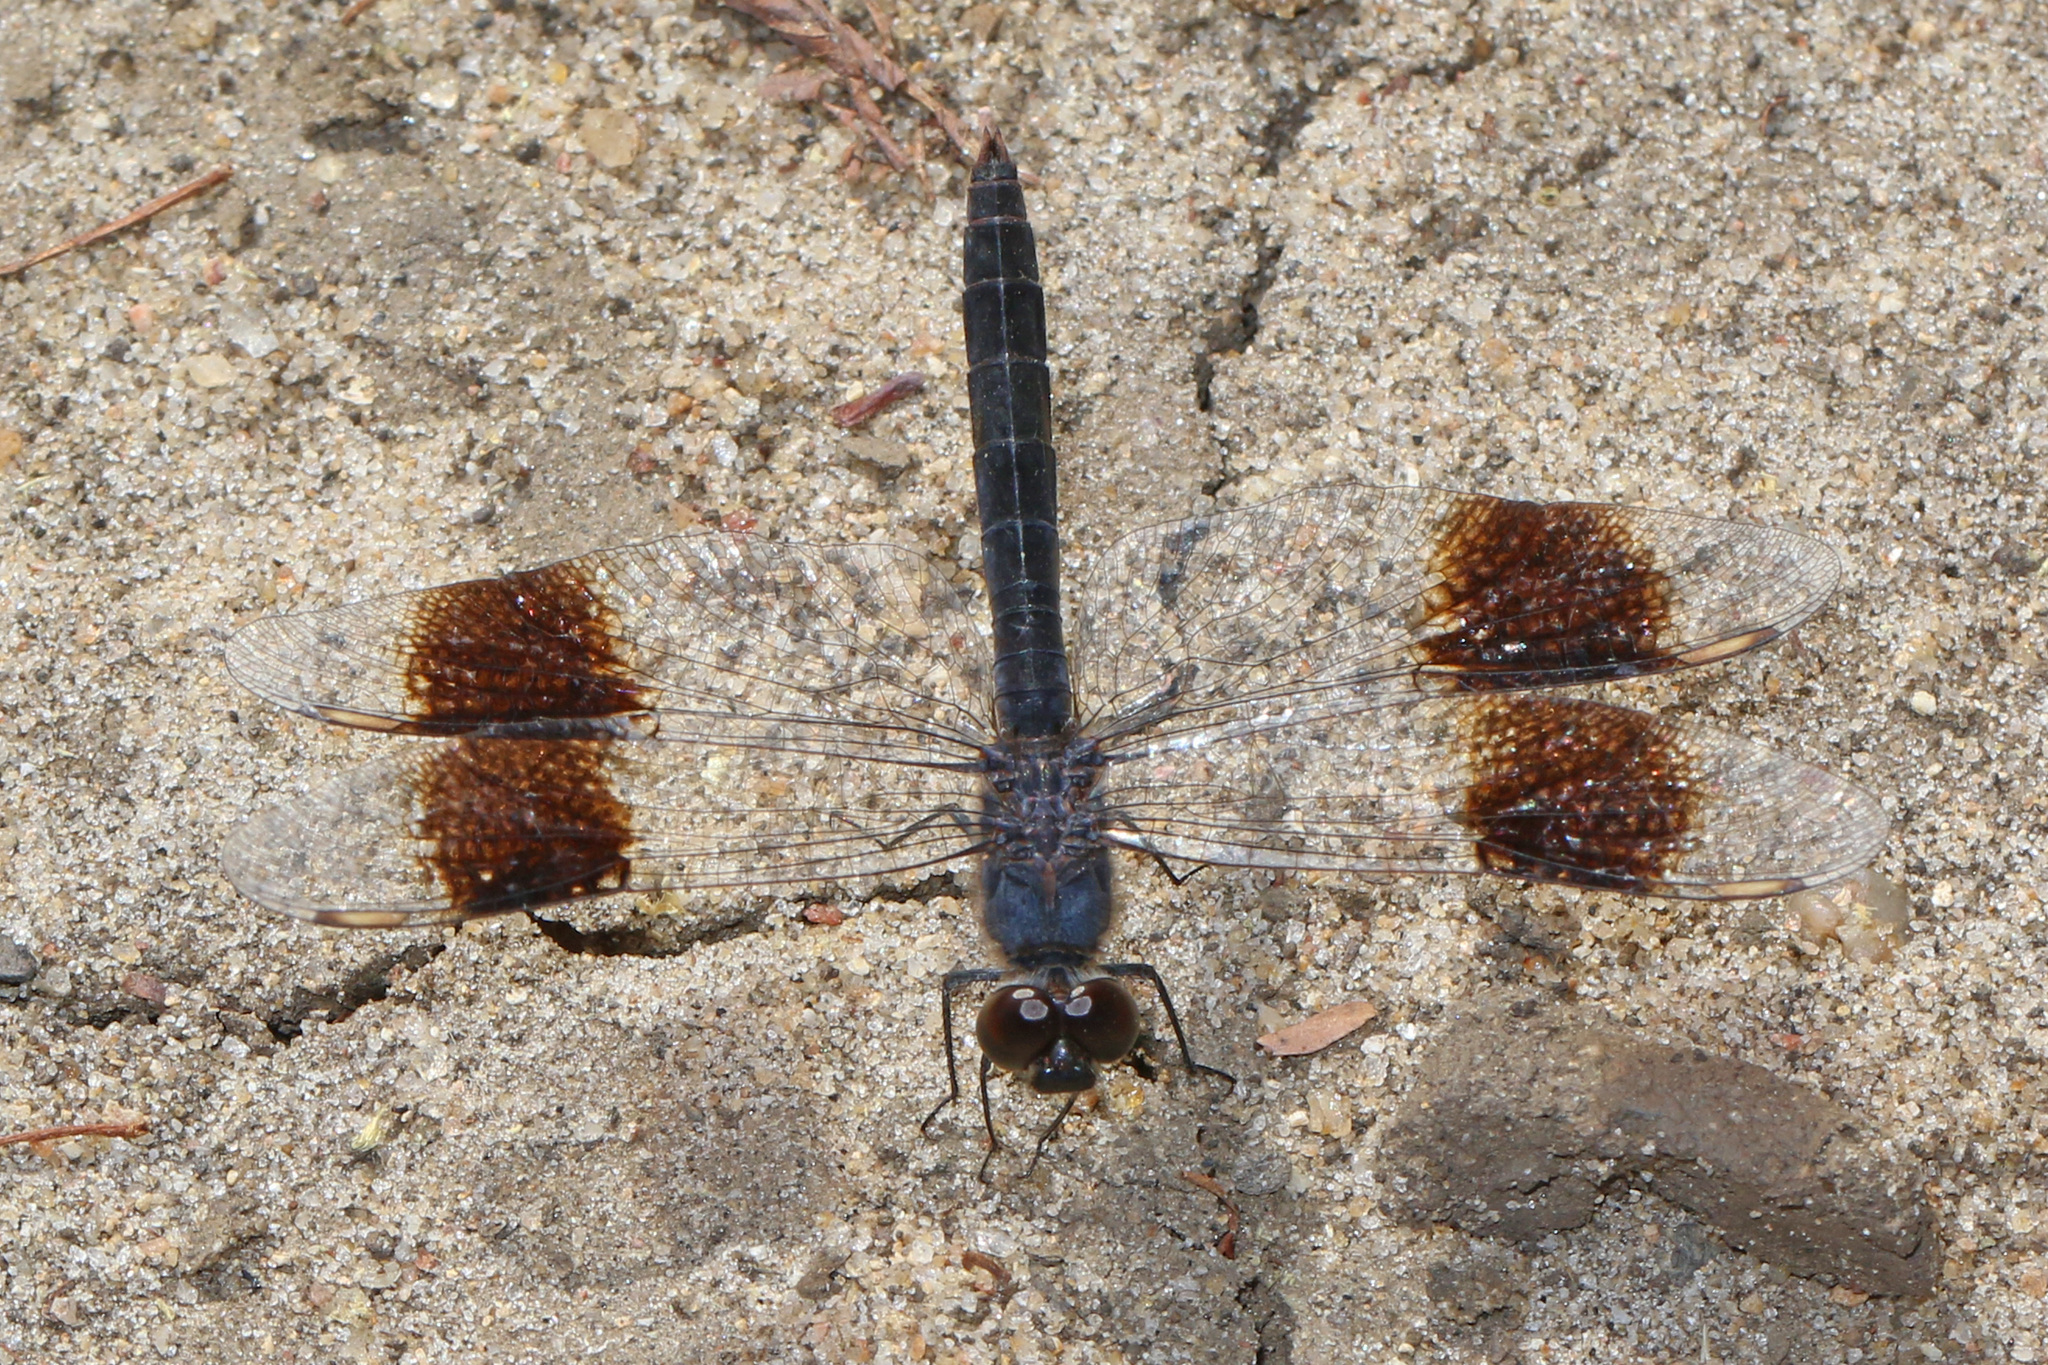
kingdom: Animalia
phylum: Arthropoda
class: Insecta
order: Odonata
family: Libellulidae
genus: Brachythemis
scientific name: Brachythemis leucosticta
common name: Banded groundling
